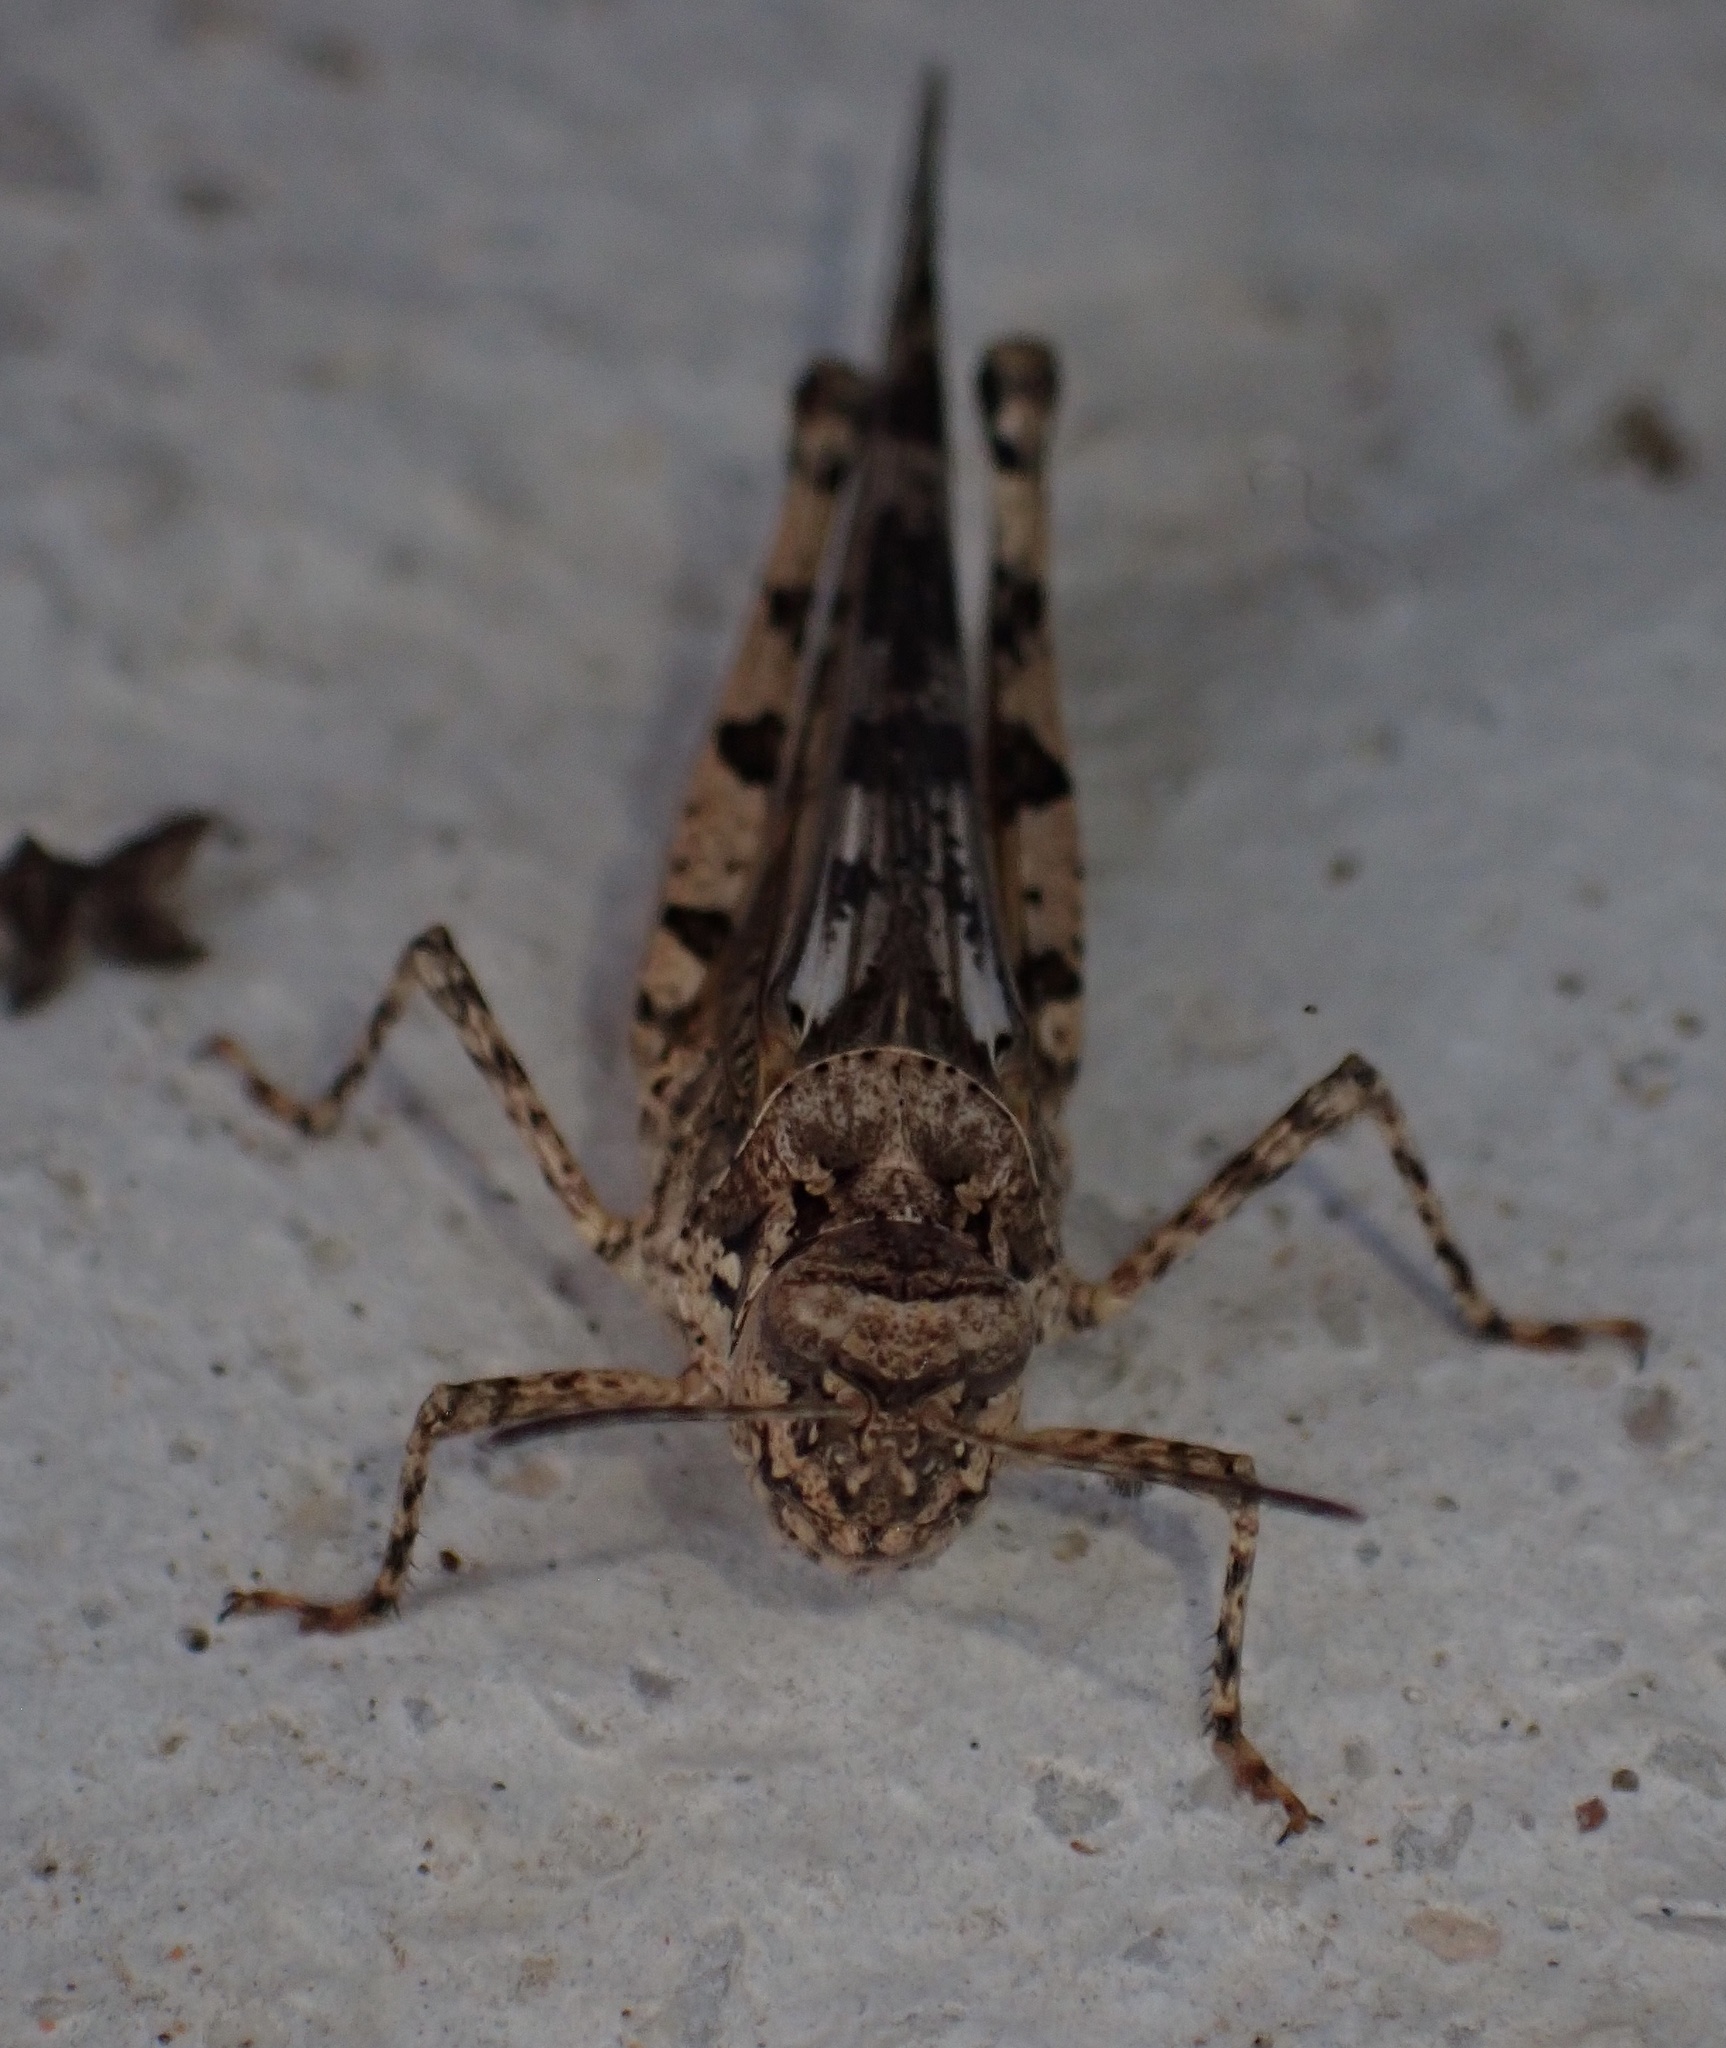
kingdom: Animalia
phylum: Arthropoda
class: Insecta
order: Orthoptera
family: Acrididae
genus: Acrotylus
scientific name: Acrotylus patruelis
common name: Slender burrowing grasshopper
